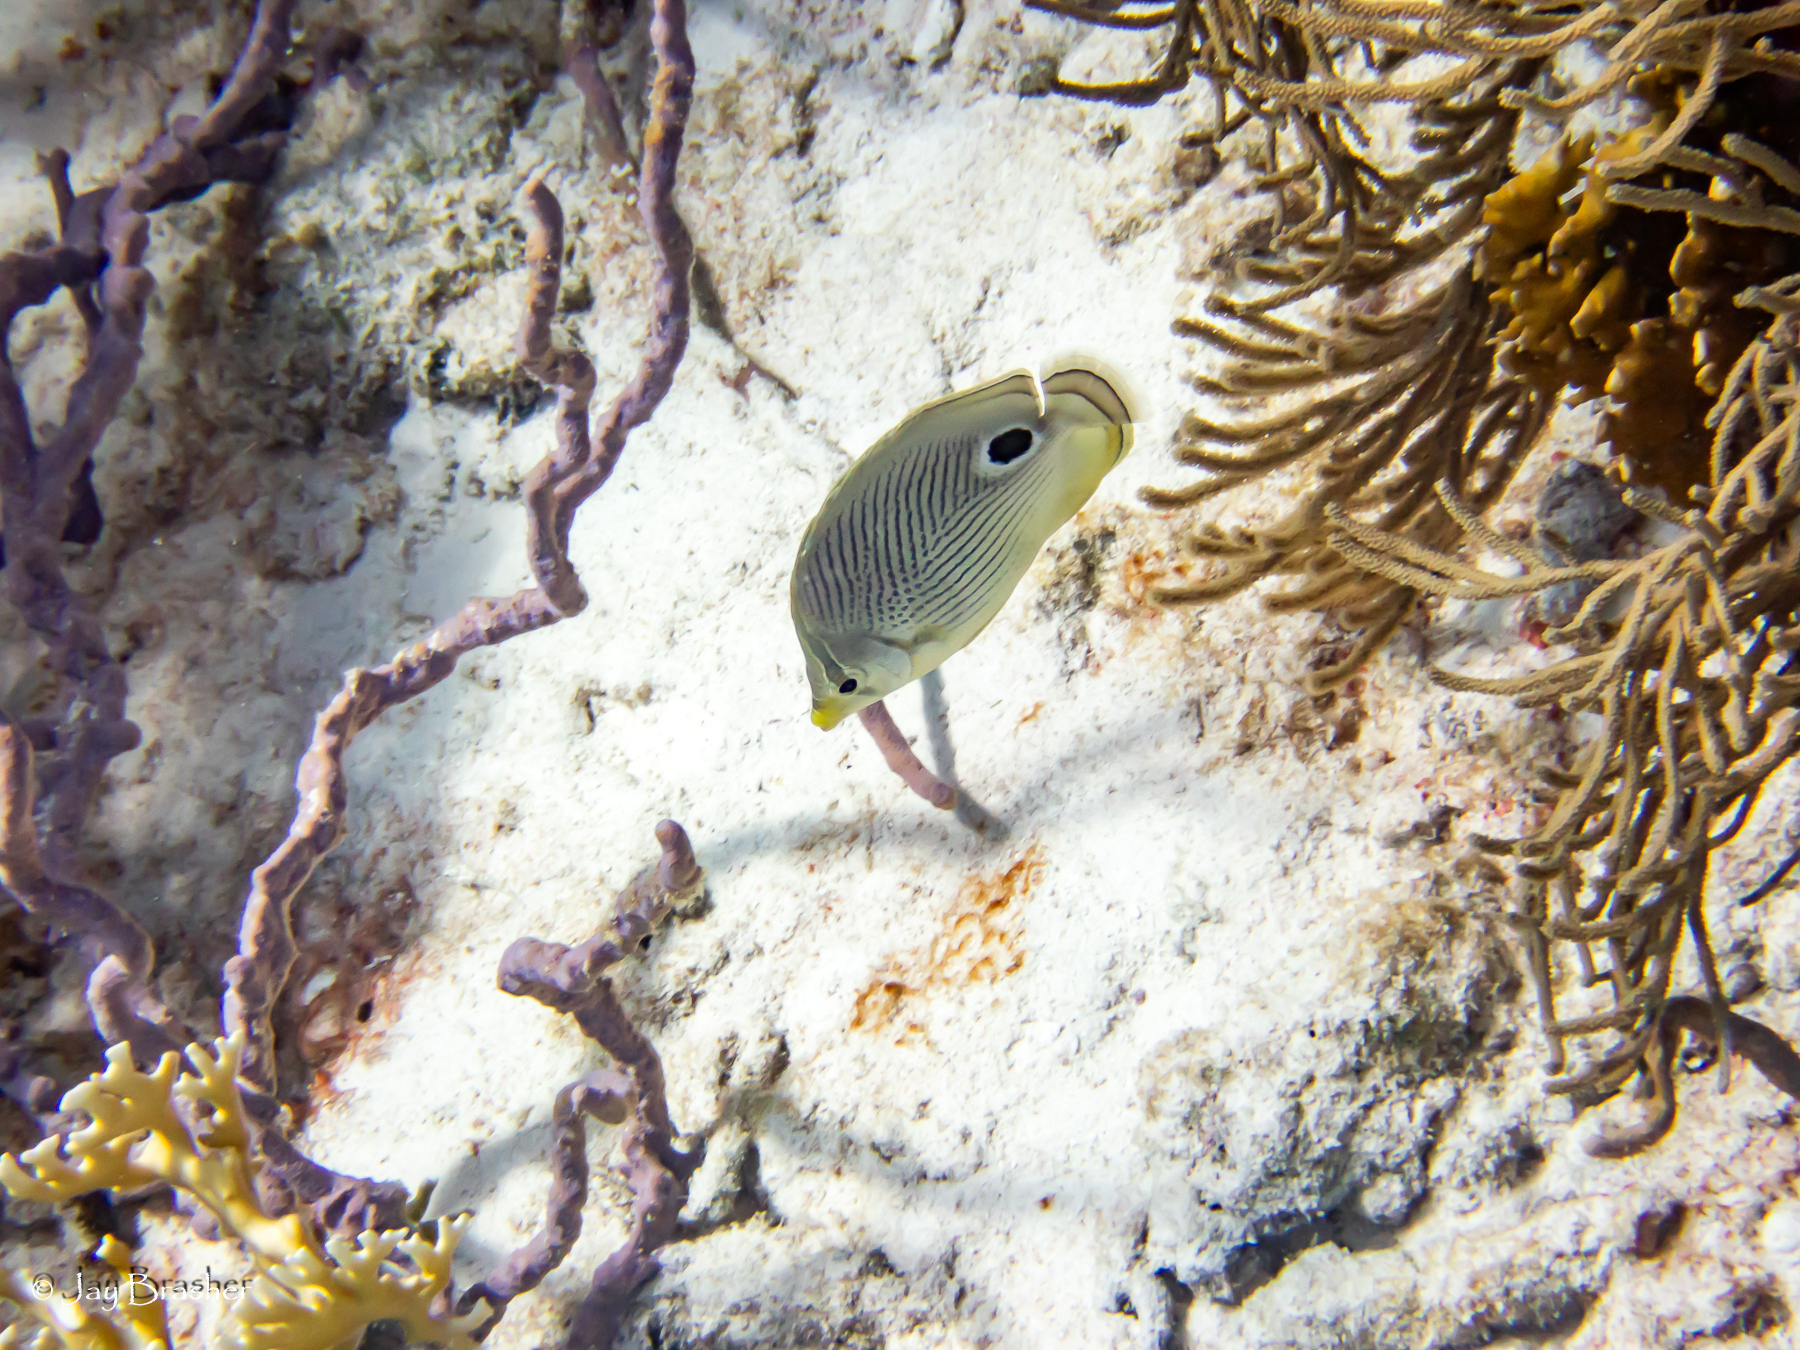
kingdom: Animalia
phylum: Porifera
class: Demospongiae
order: Verongiida
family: Aplysinidae
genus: Aplysina
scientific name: Aplysina cauliformis
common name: Branching candle sponge
